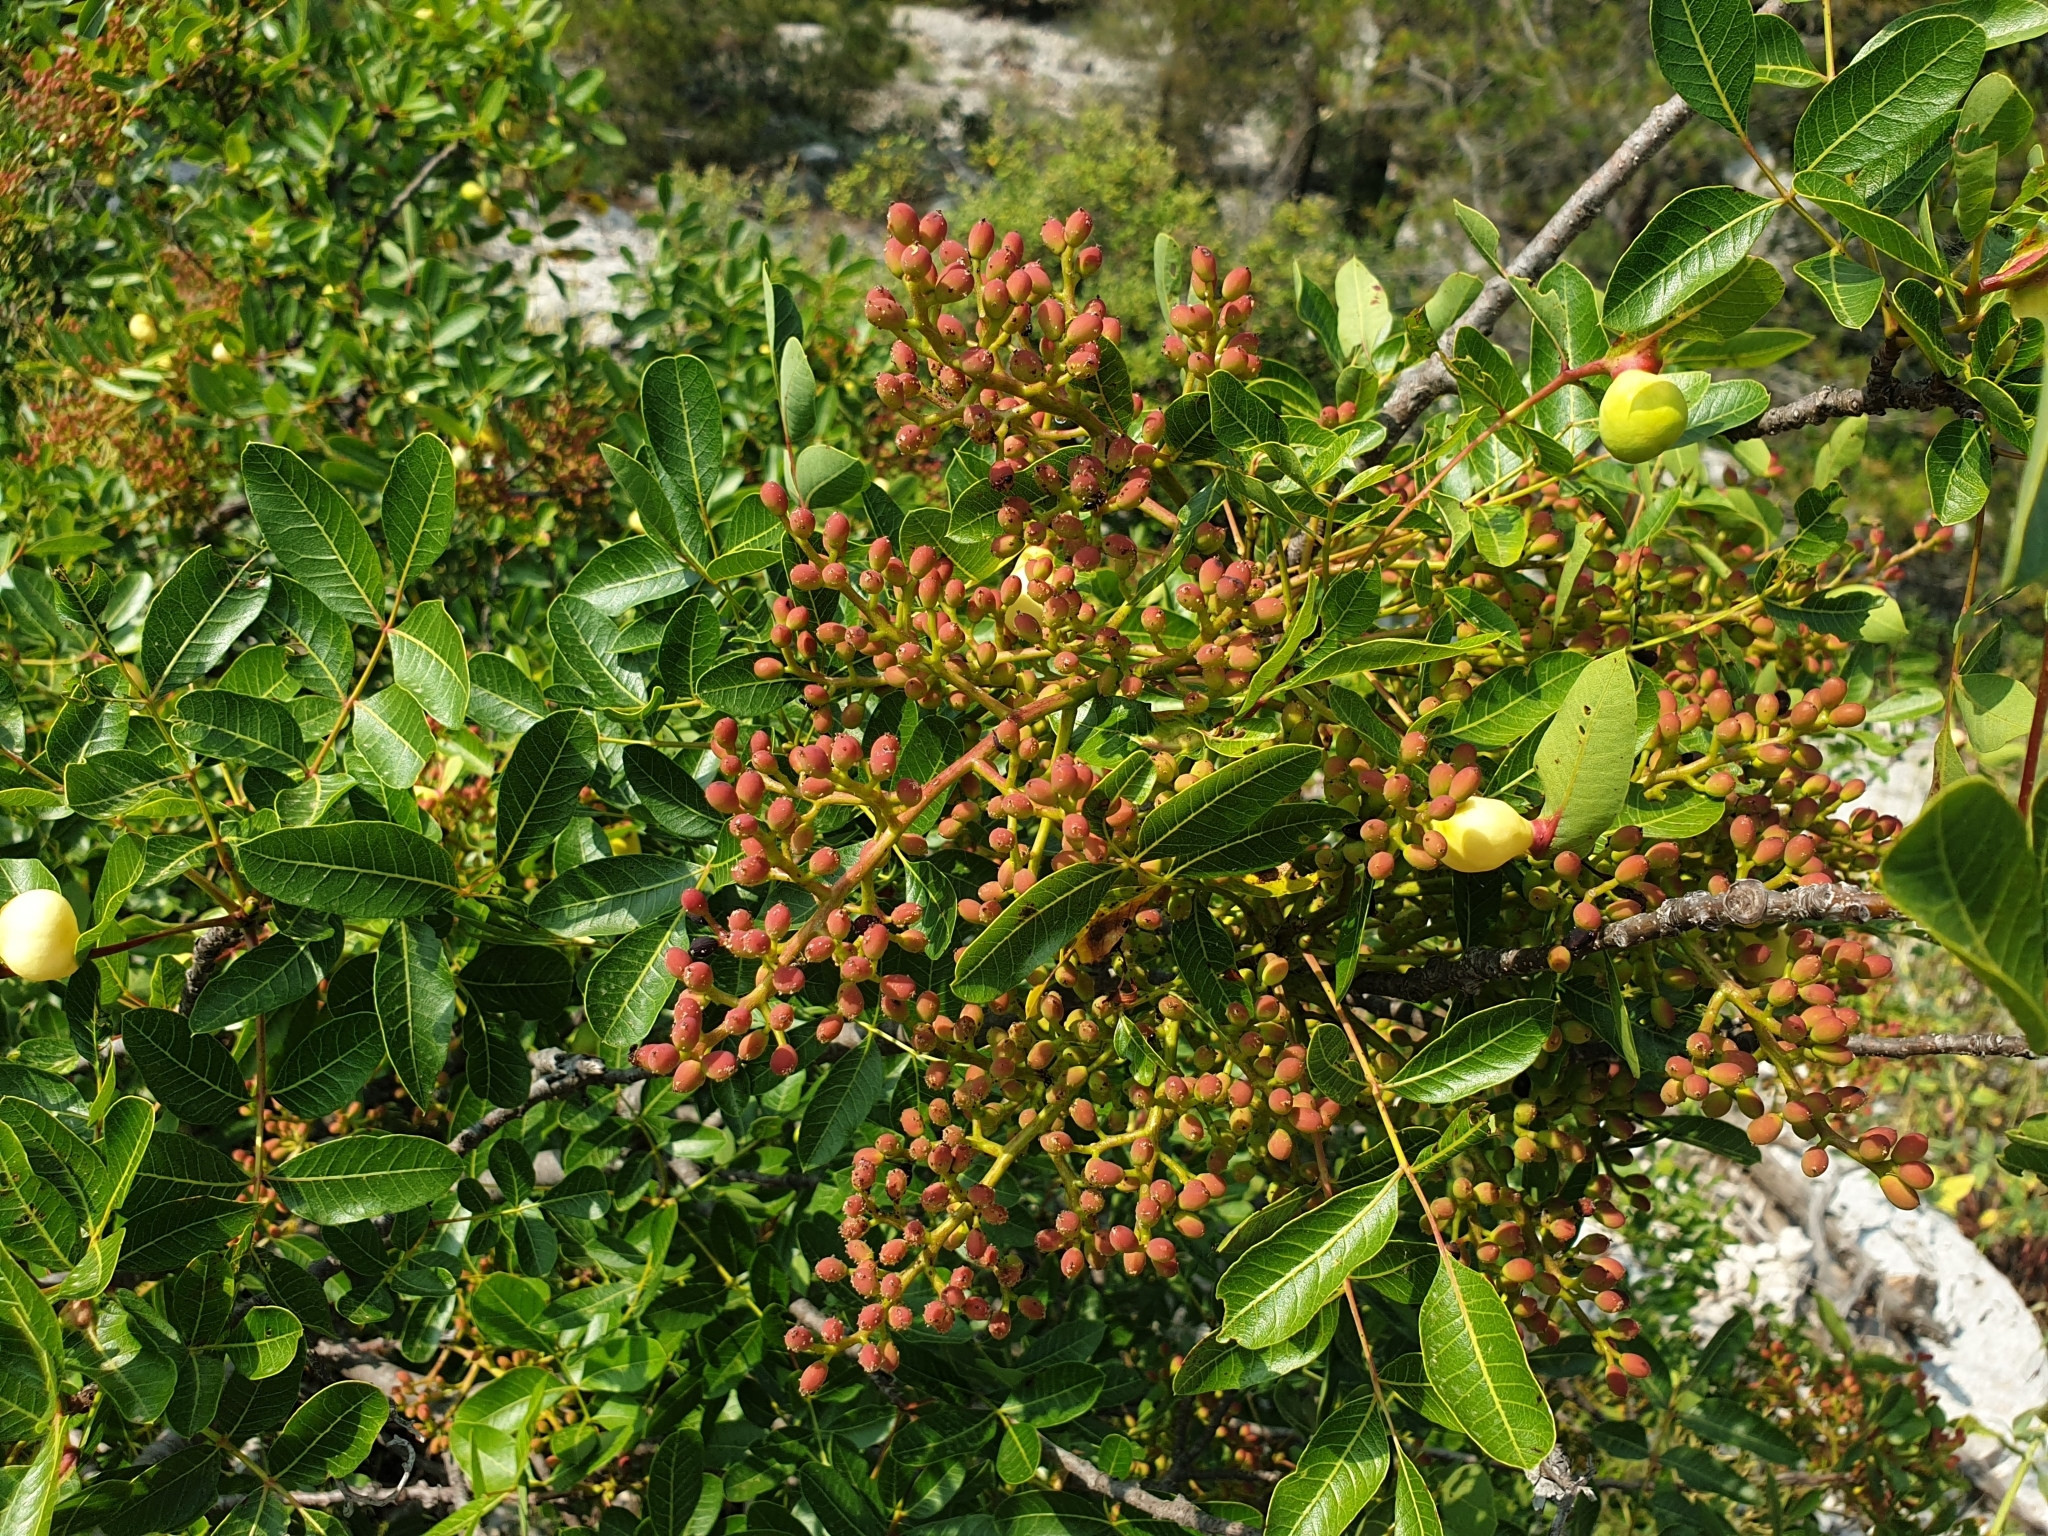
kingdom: Plantae
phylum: Tracheophyta
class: Magnoliopsida
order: Sapindales
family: Anacardiaceae
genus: Pistacia
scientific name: Pistacia terebinthus
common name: Terebinth
